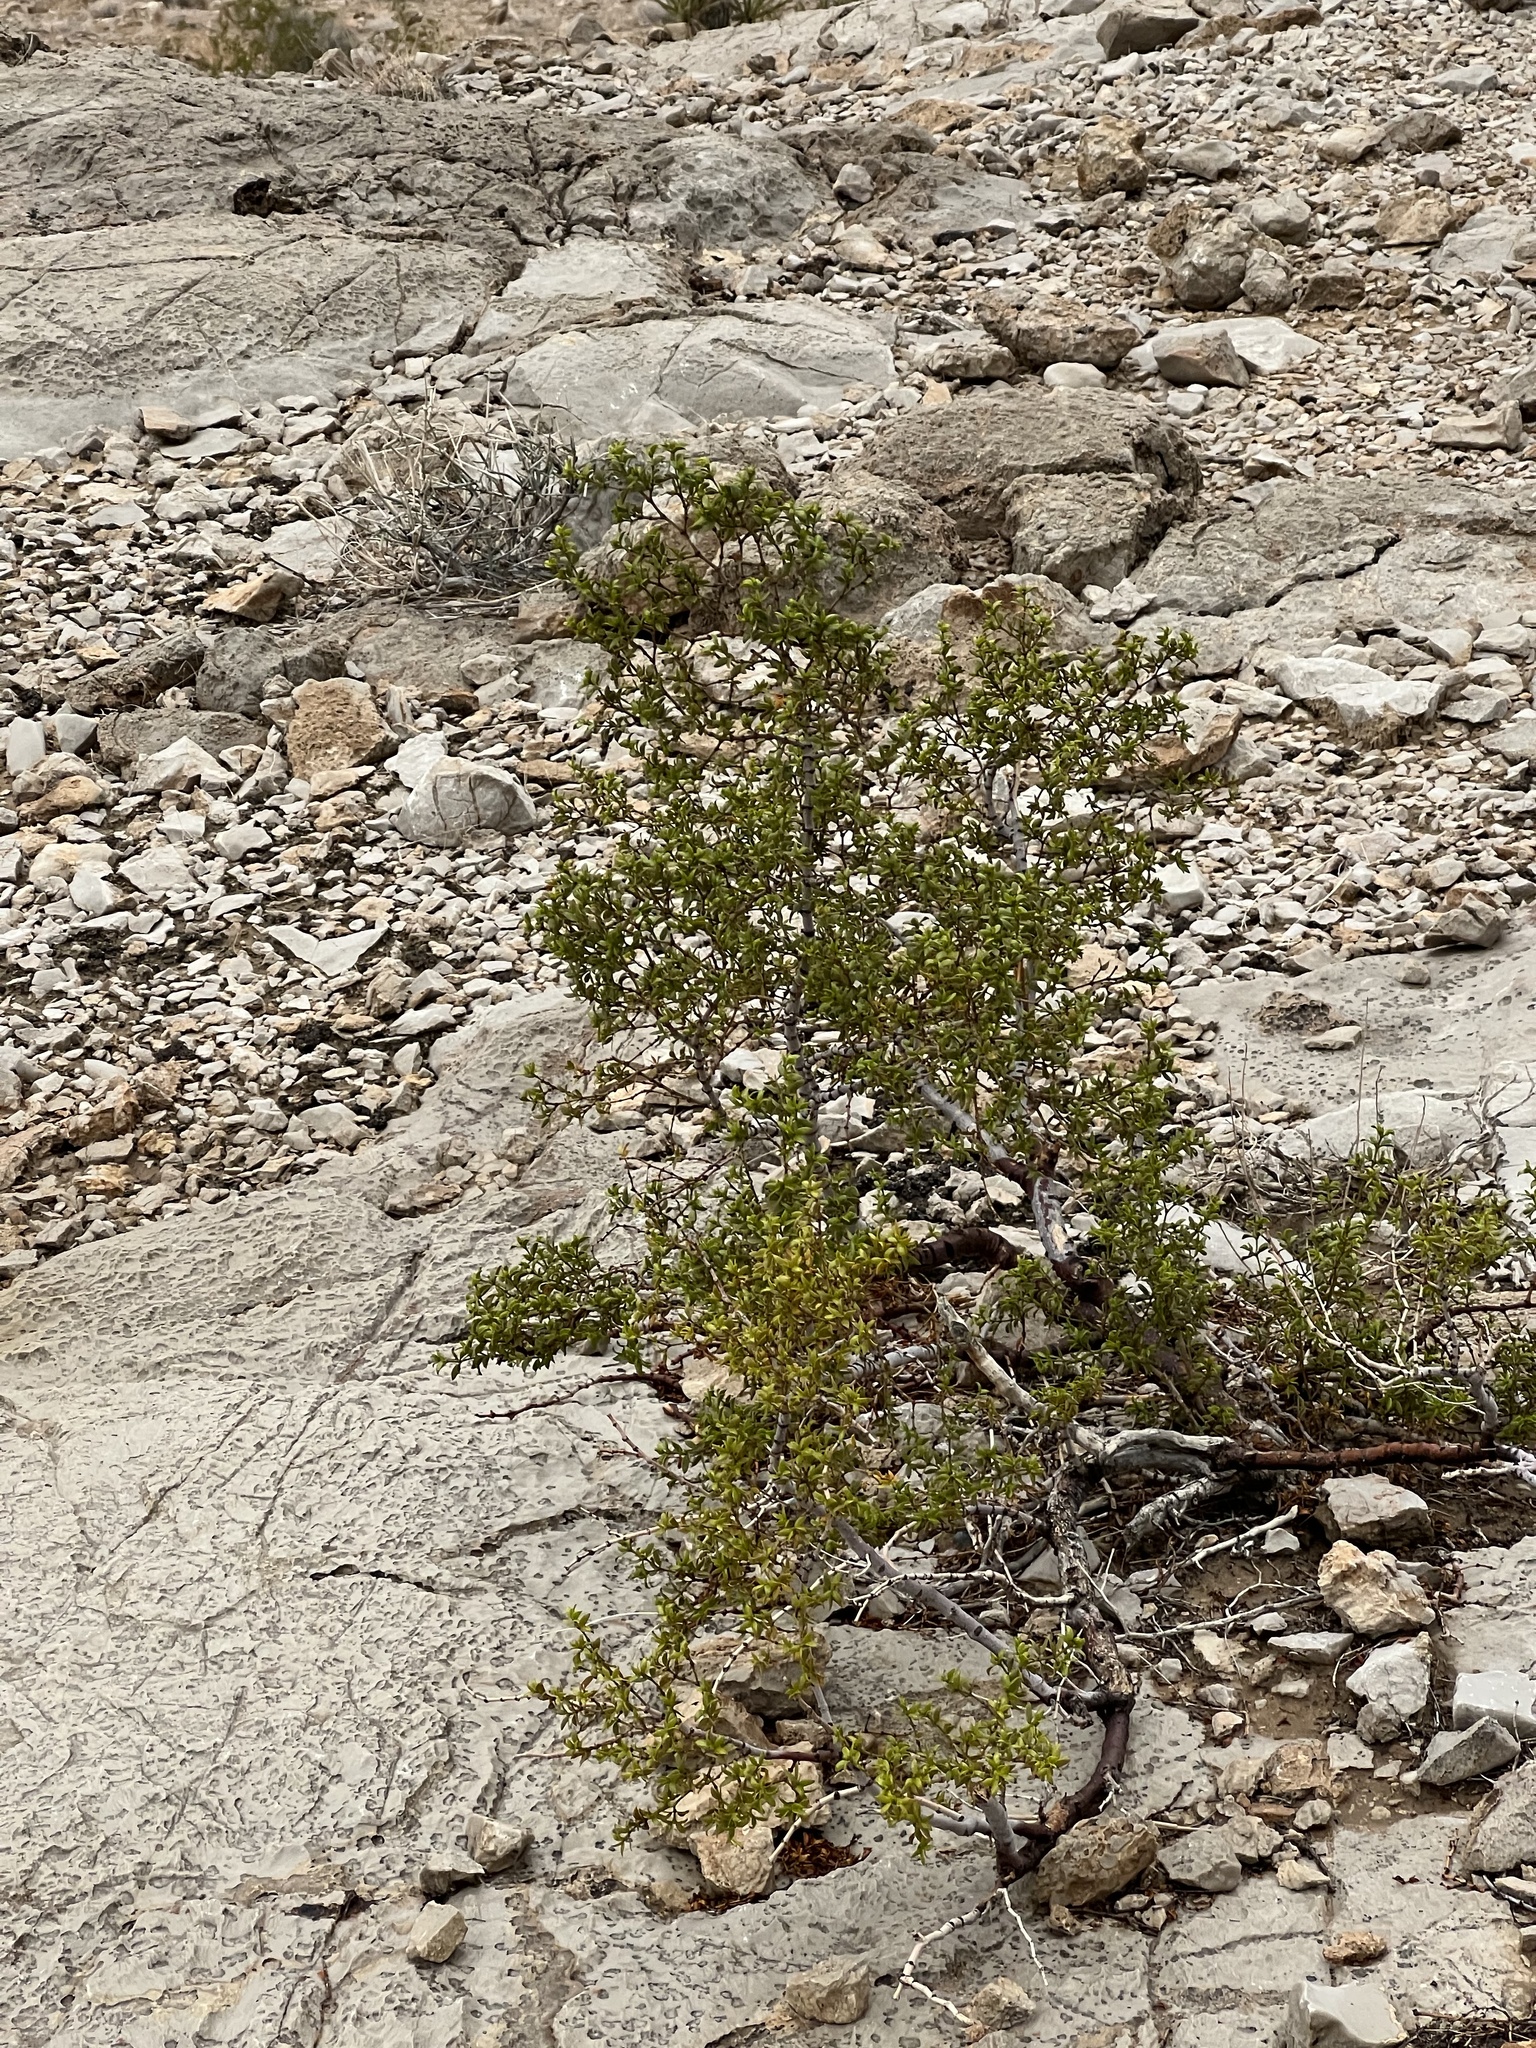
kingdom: Plantae
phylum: Tracheophyta
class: Magnoliopsida
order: Zygophyllales
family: Zygophyllaceae
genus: Larrea
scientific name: Larrea tridentata
